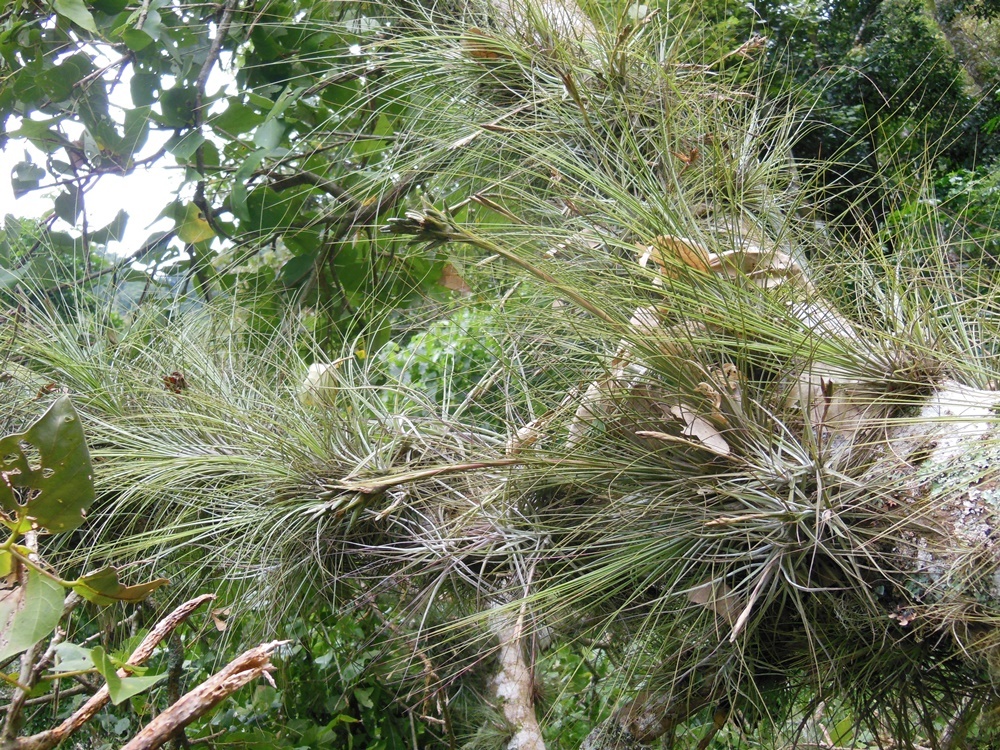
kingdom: Plantae
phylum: Tracheophyta
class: Liliopsida
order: Poales
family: Bromeliaceae
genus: Tillandsia
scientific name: Tillandsia juncea
